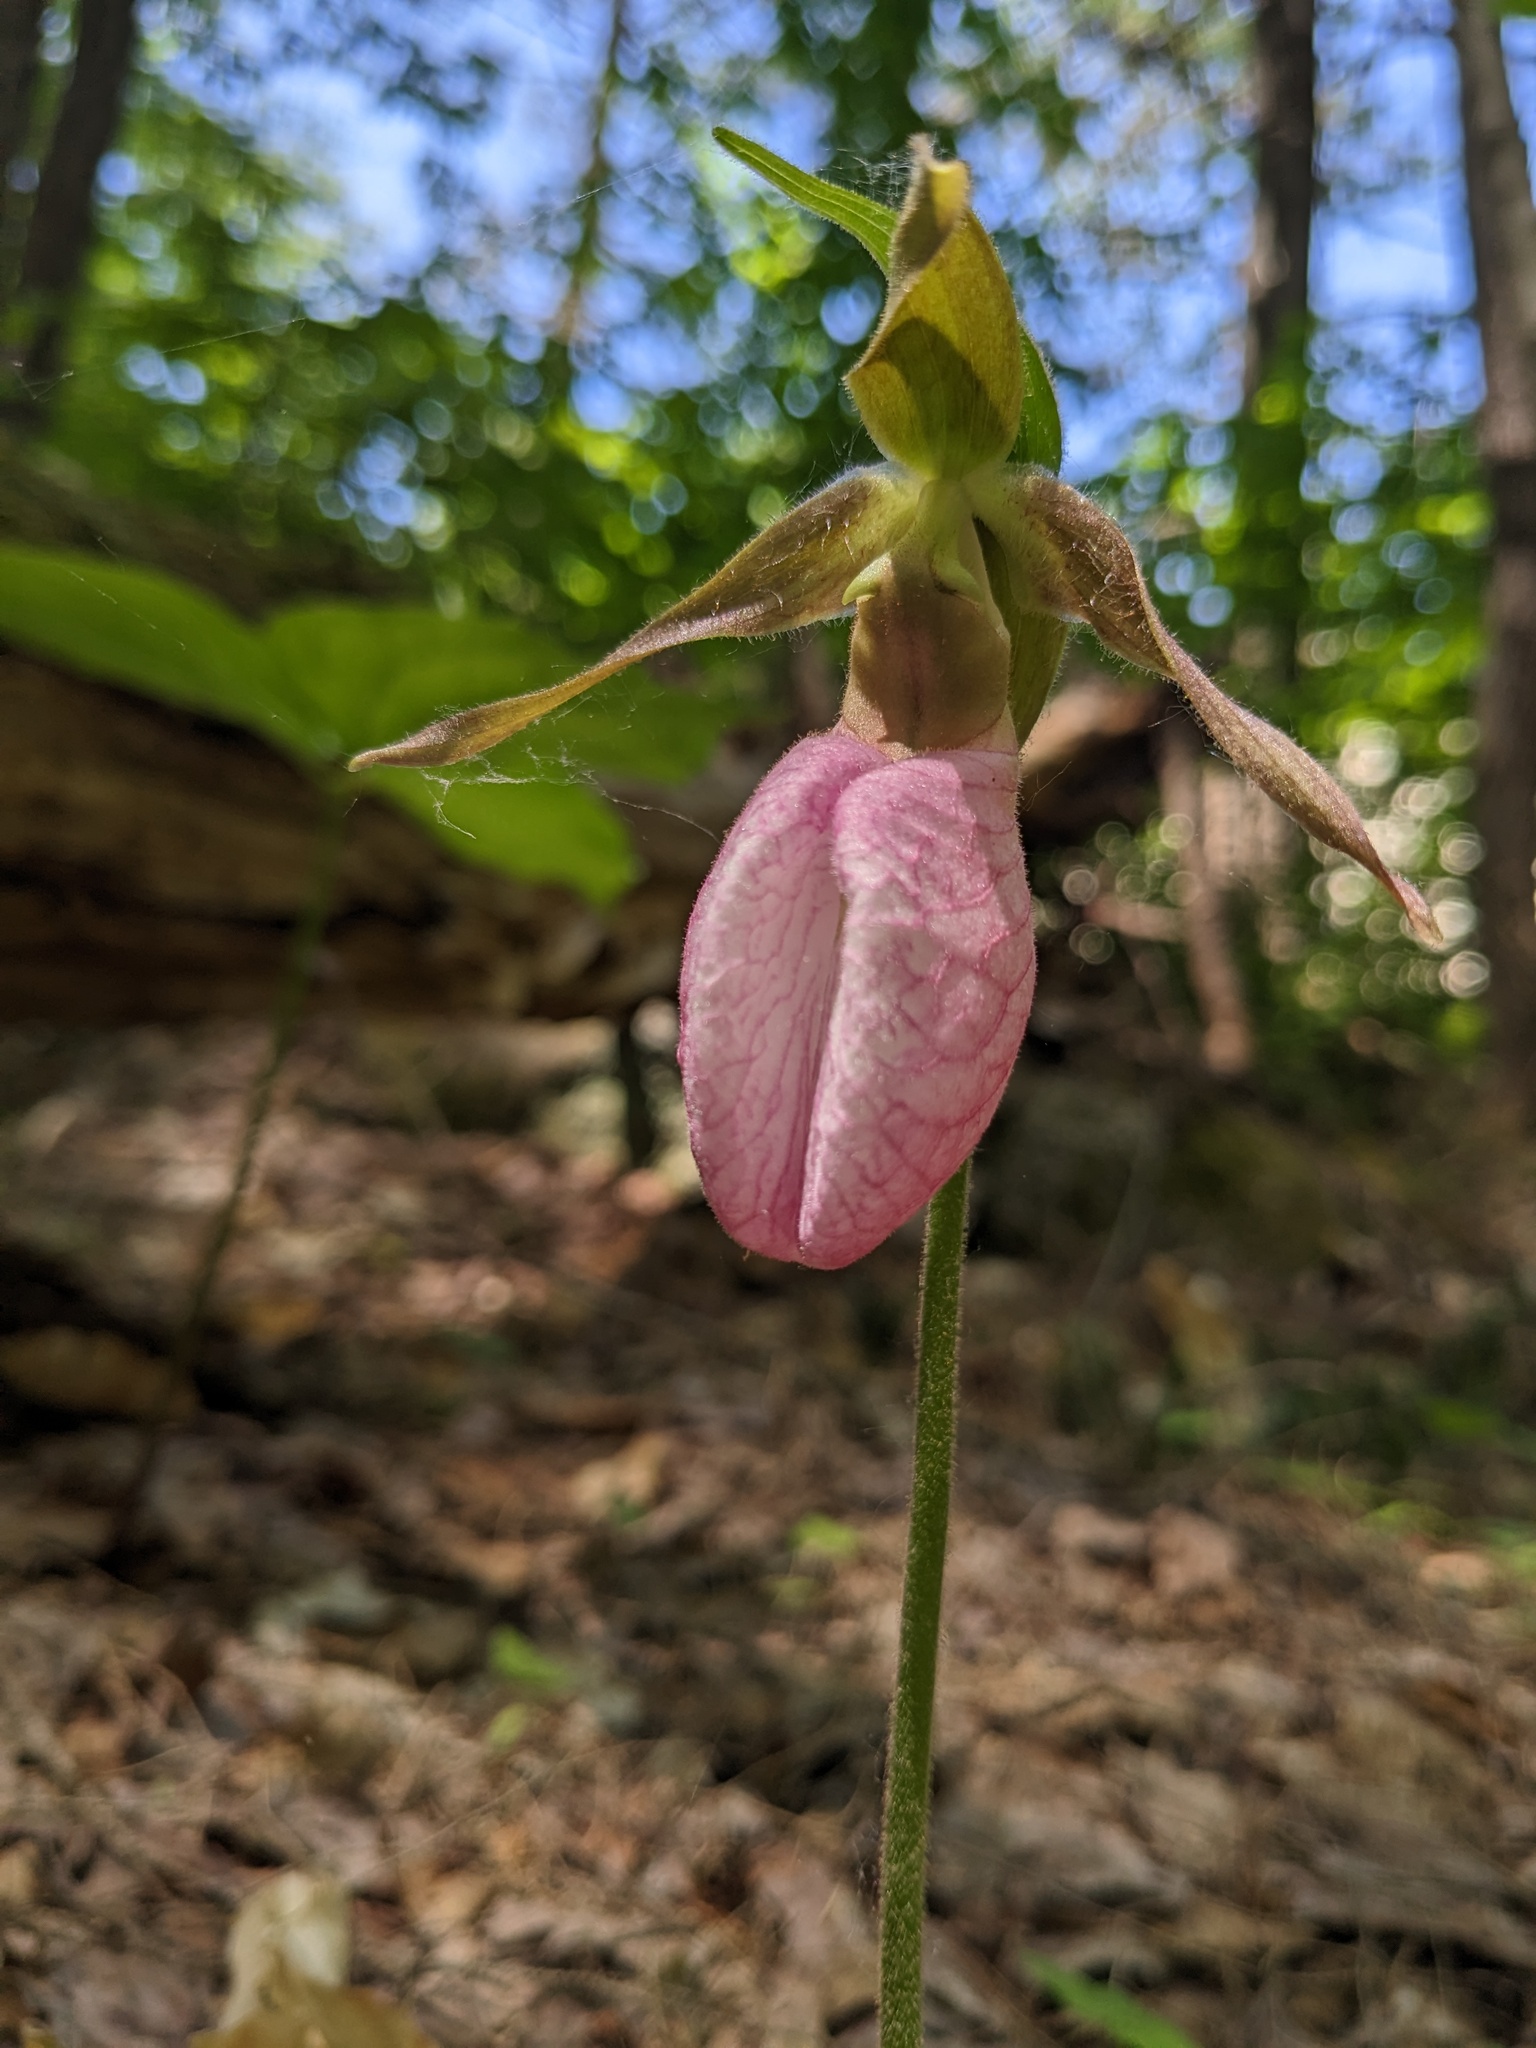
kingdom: Plantae
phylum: Tracheophyta
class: Liliopsida
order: Asparagales
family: Orchidaceae
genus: Cypripedium
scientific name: Cypripedium acaule
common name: Pink lady's-slipper
